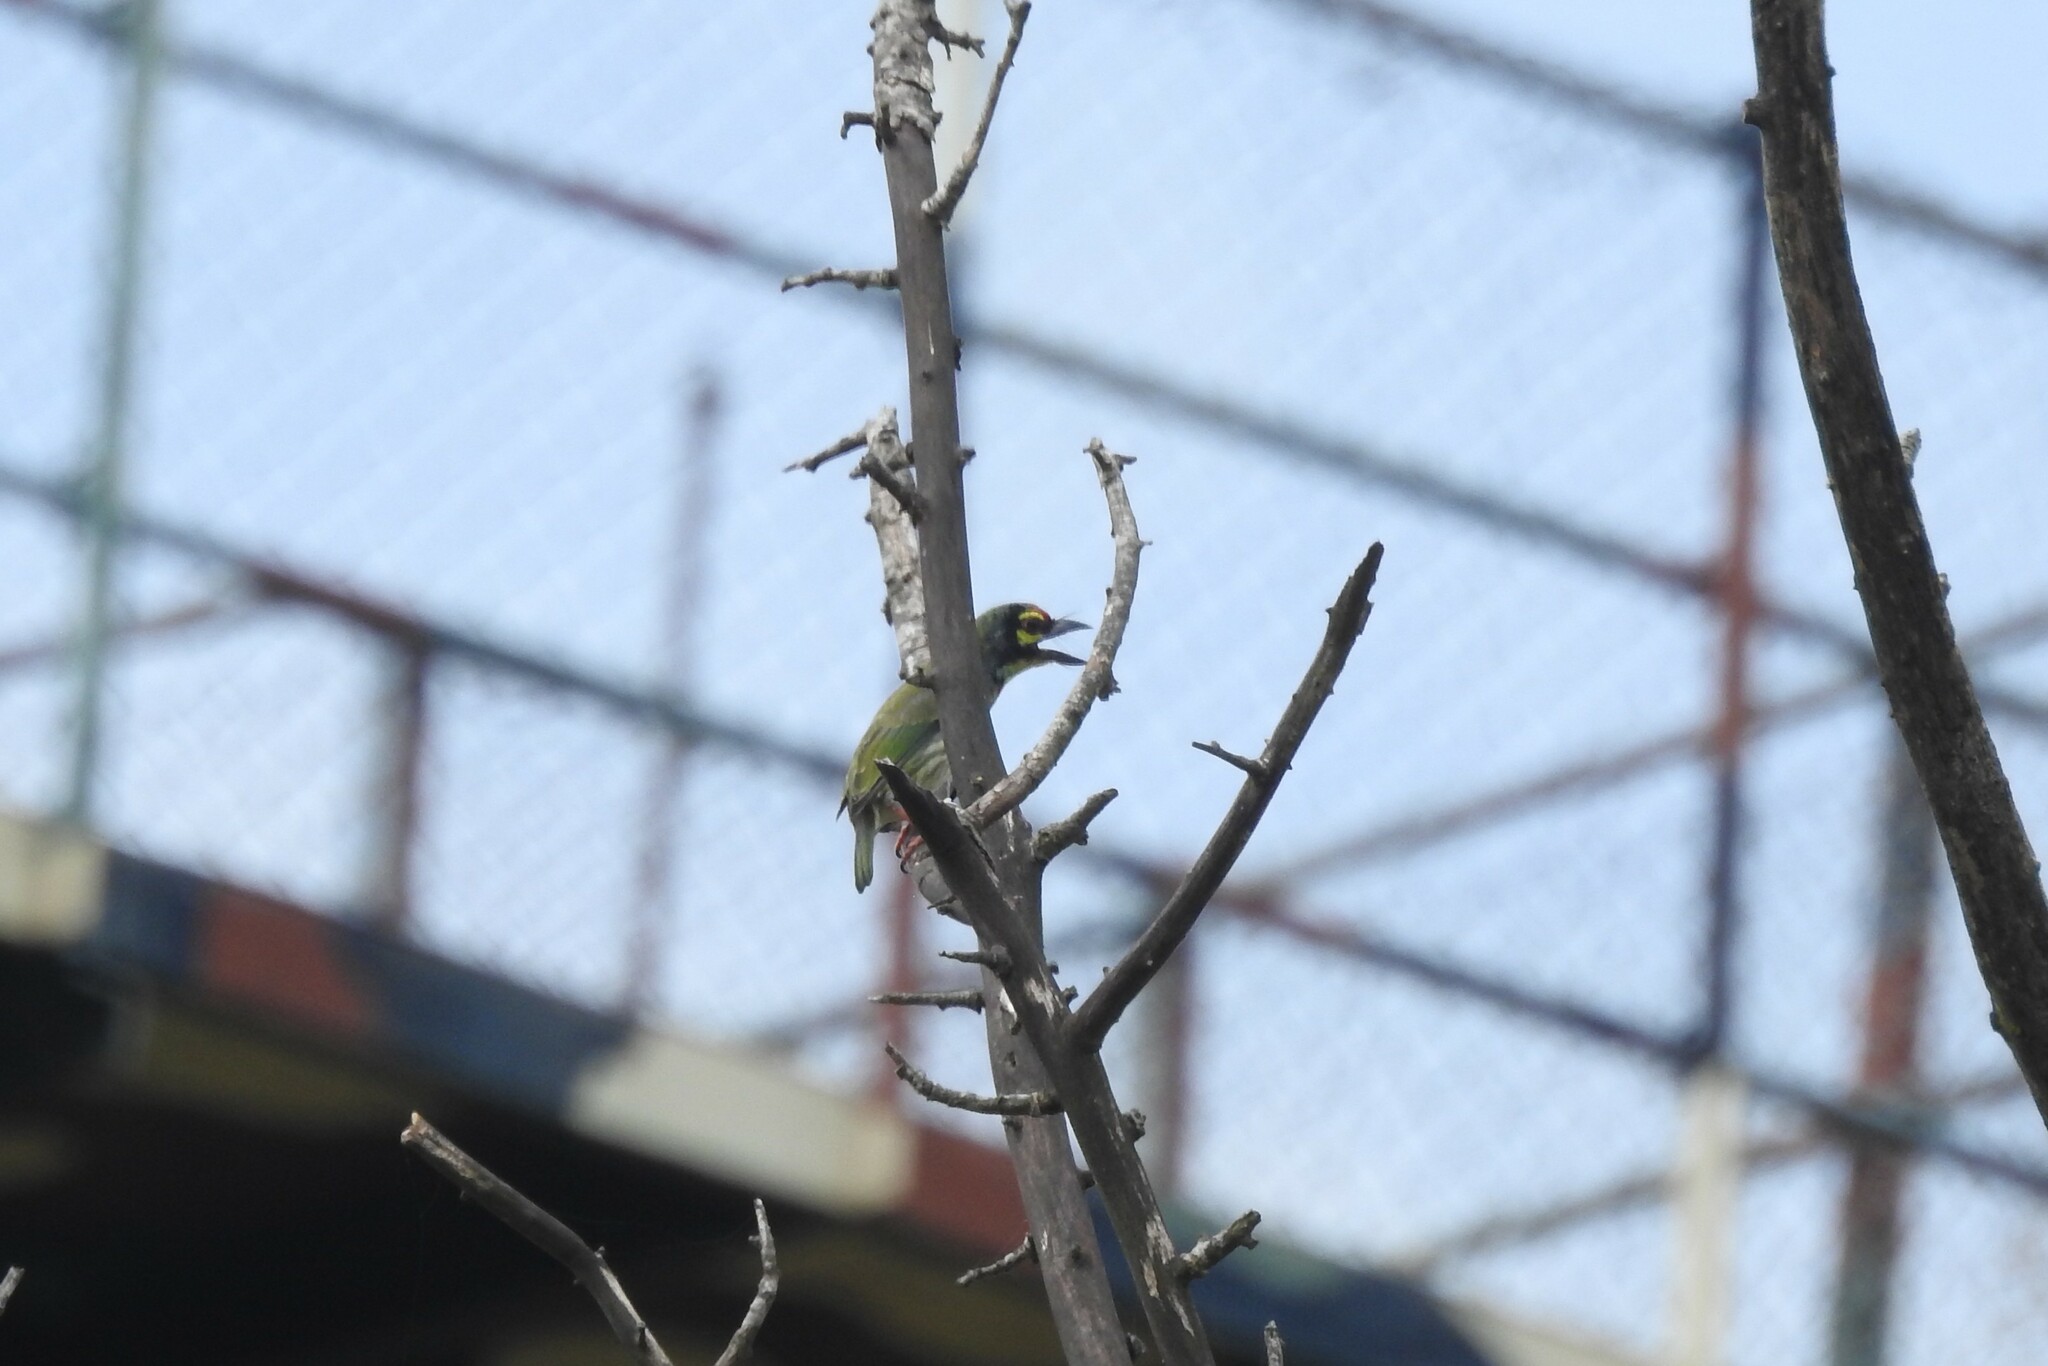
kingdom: Animalia
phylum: Chordata
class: Aves
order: Piciformes
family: Megalaimidae
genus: Psilopogon
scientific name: Psilopogon haemacephalus
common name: Coppersmith barbet
